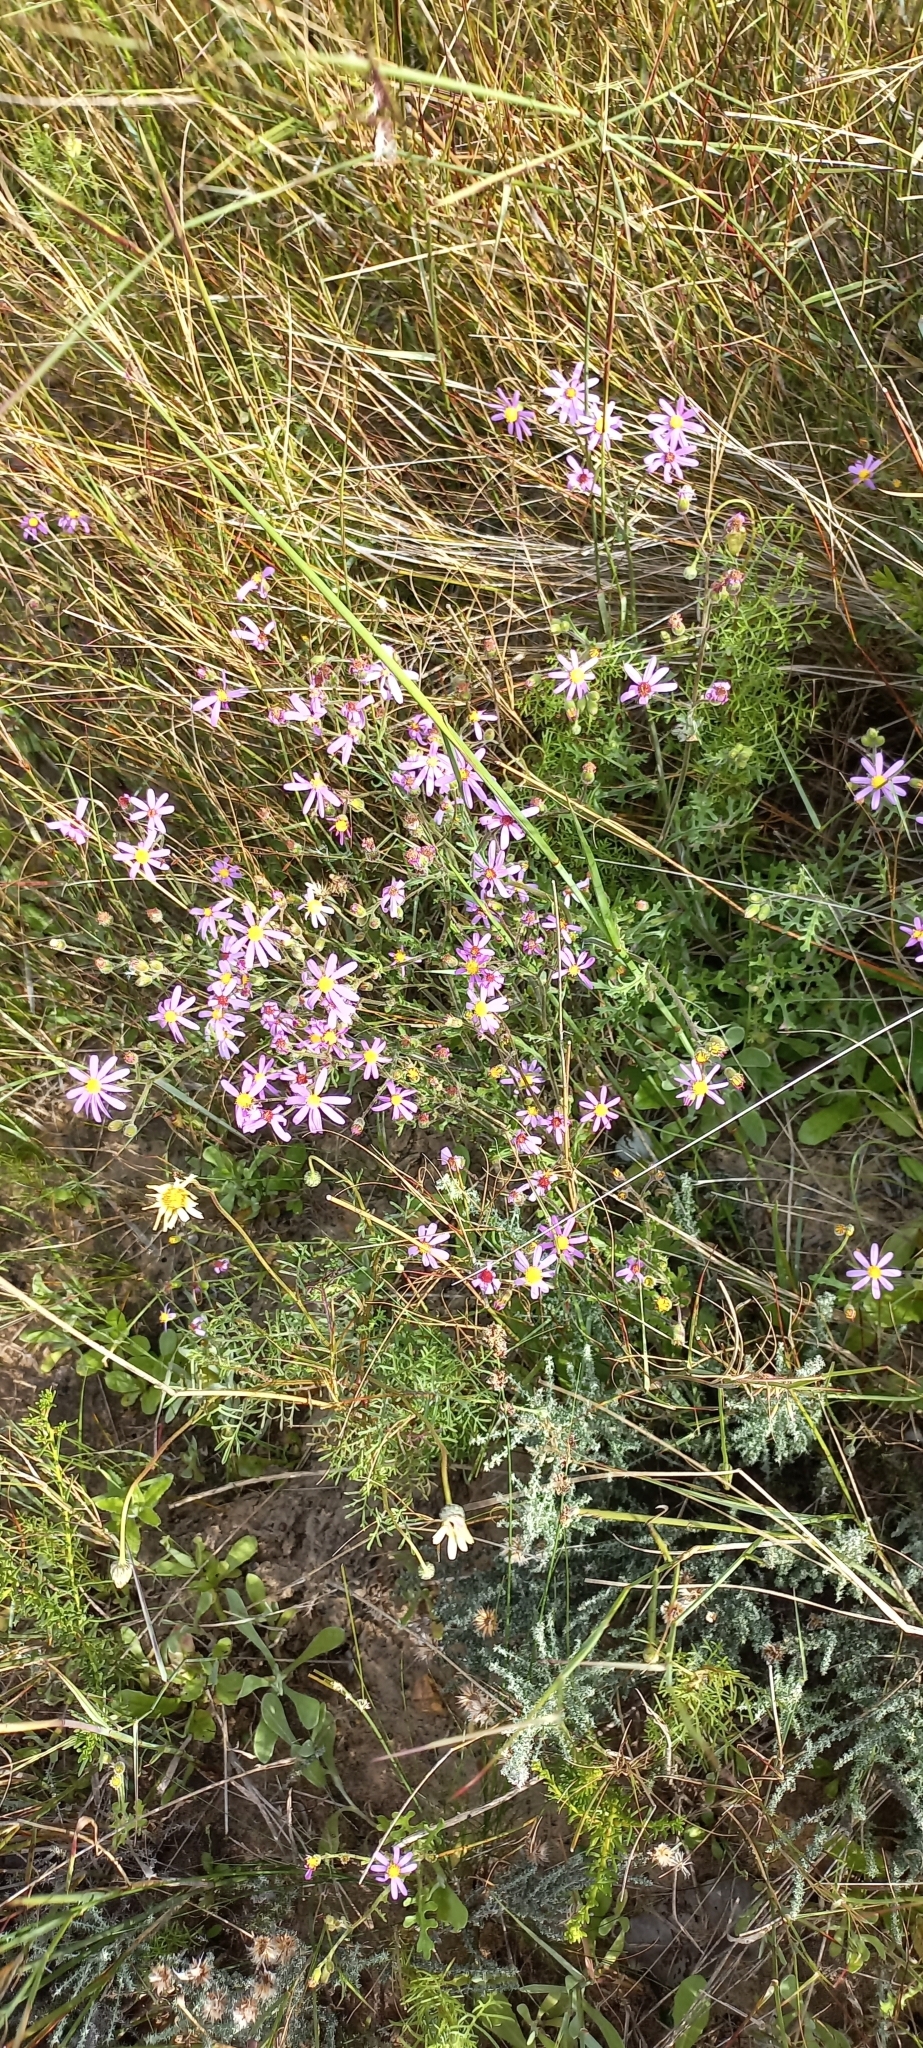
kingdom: Plantae
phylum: Tracheophyta
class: Magnoliopsida
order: Asterales
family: Asteraceae
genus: Senecio
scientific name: Senecio arenarius
